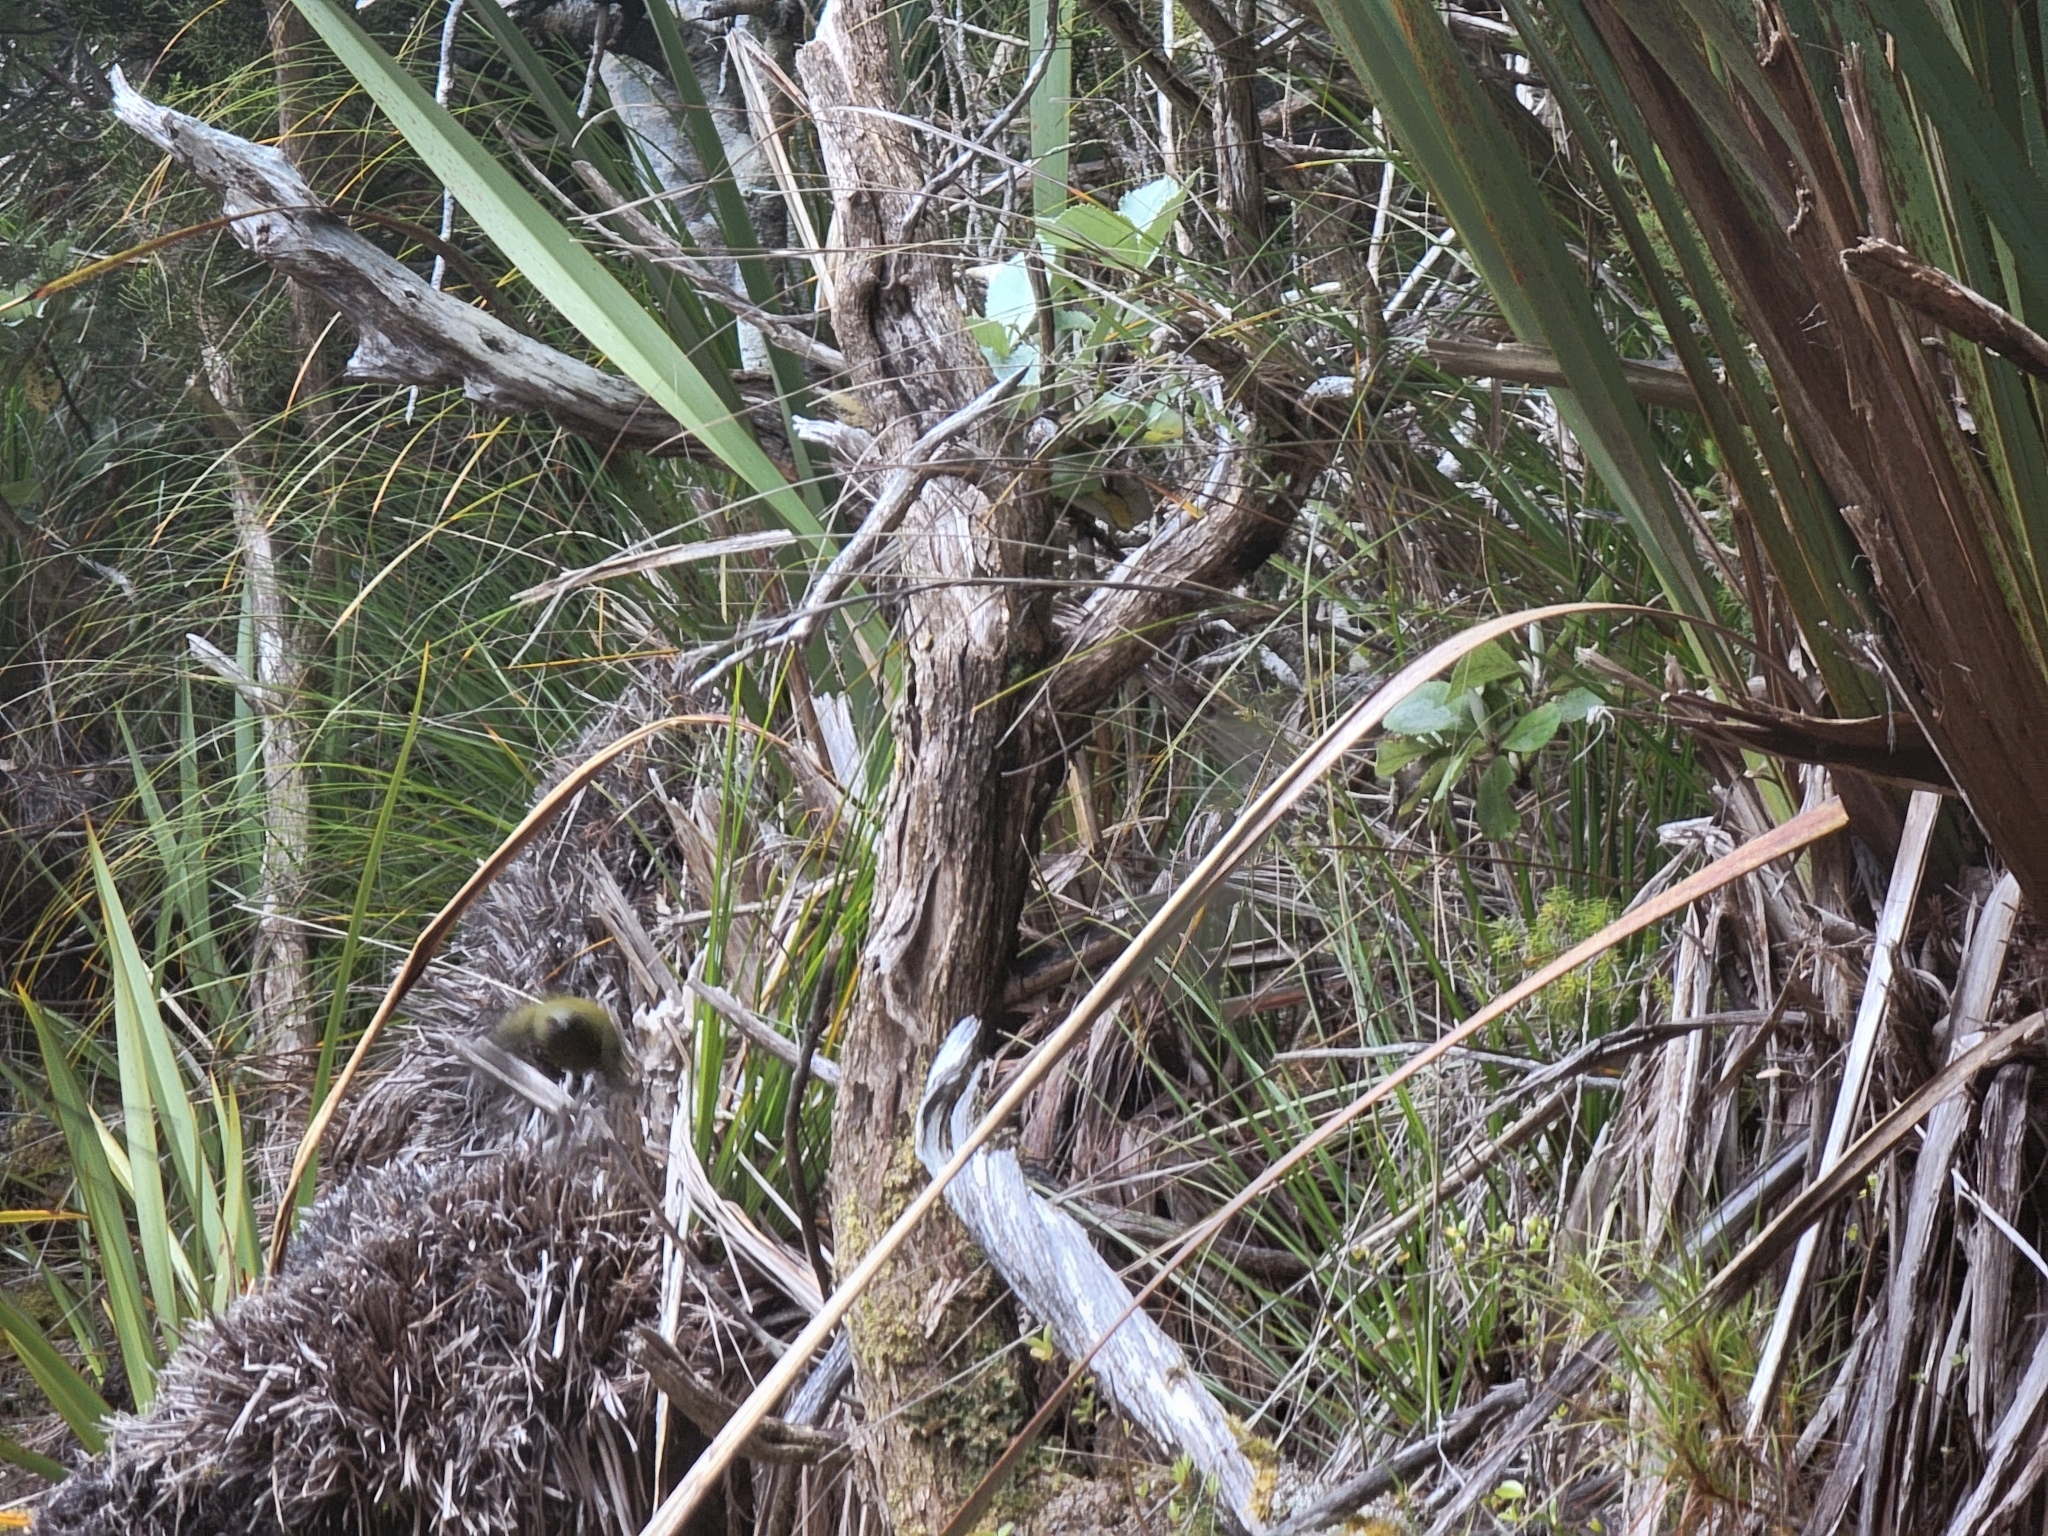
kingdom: Animalia
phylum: Chordata
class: Aves
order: Passeriformes
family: Meliphagidae
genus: Anthornis
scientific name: Anthornis melanura
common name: New zealand bellbird
